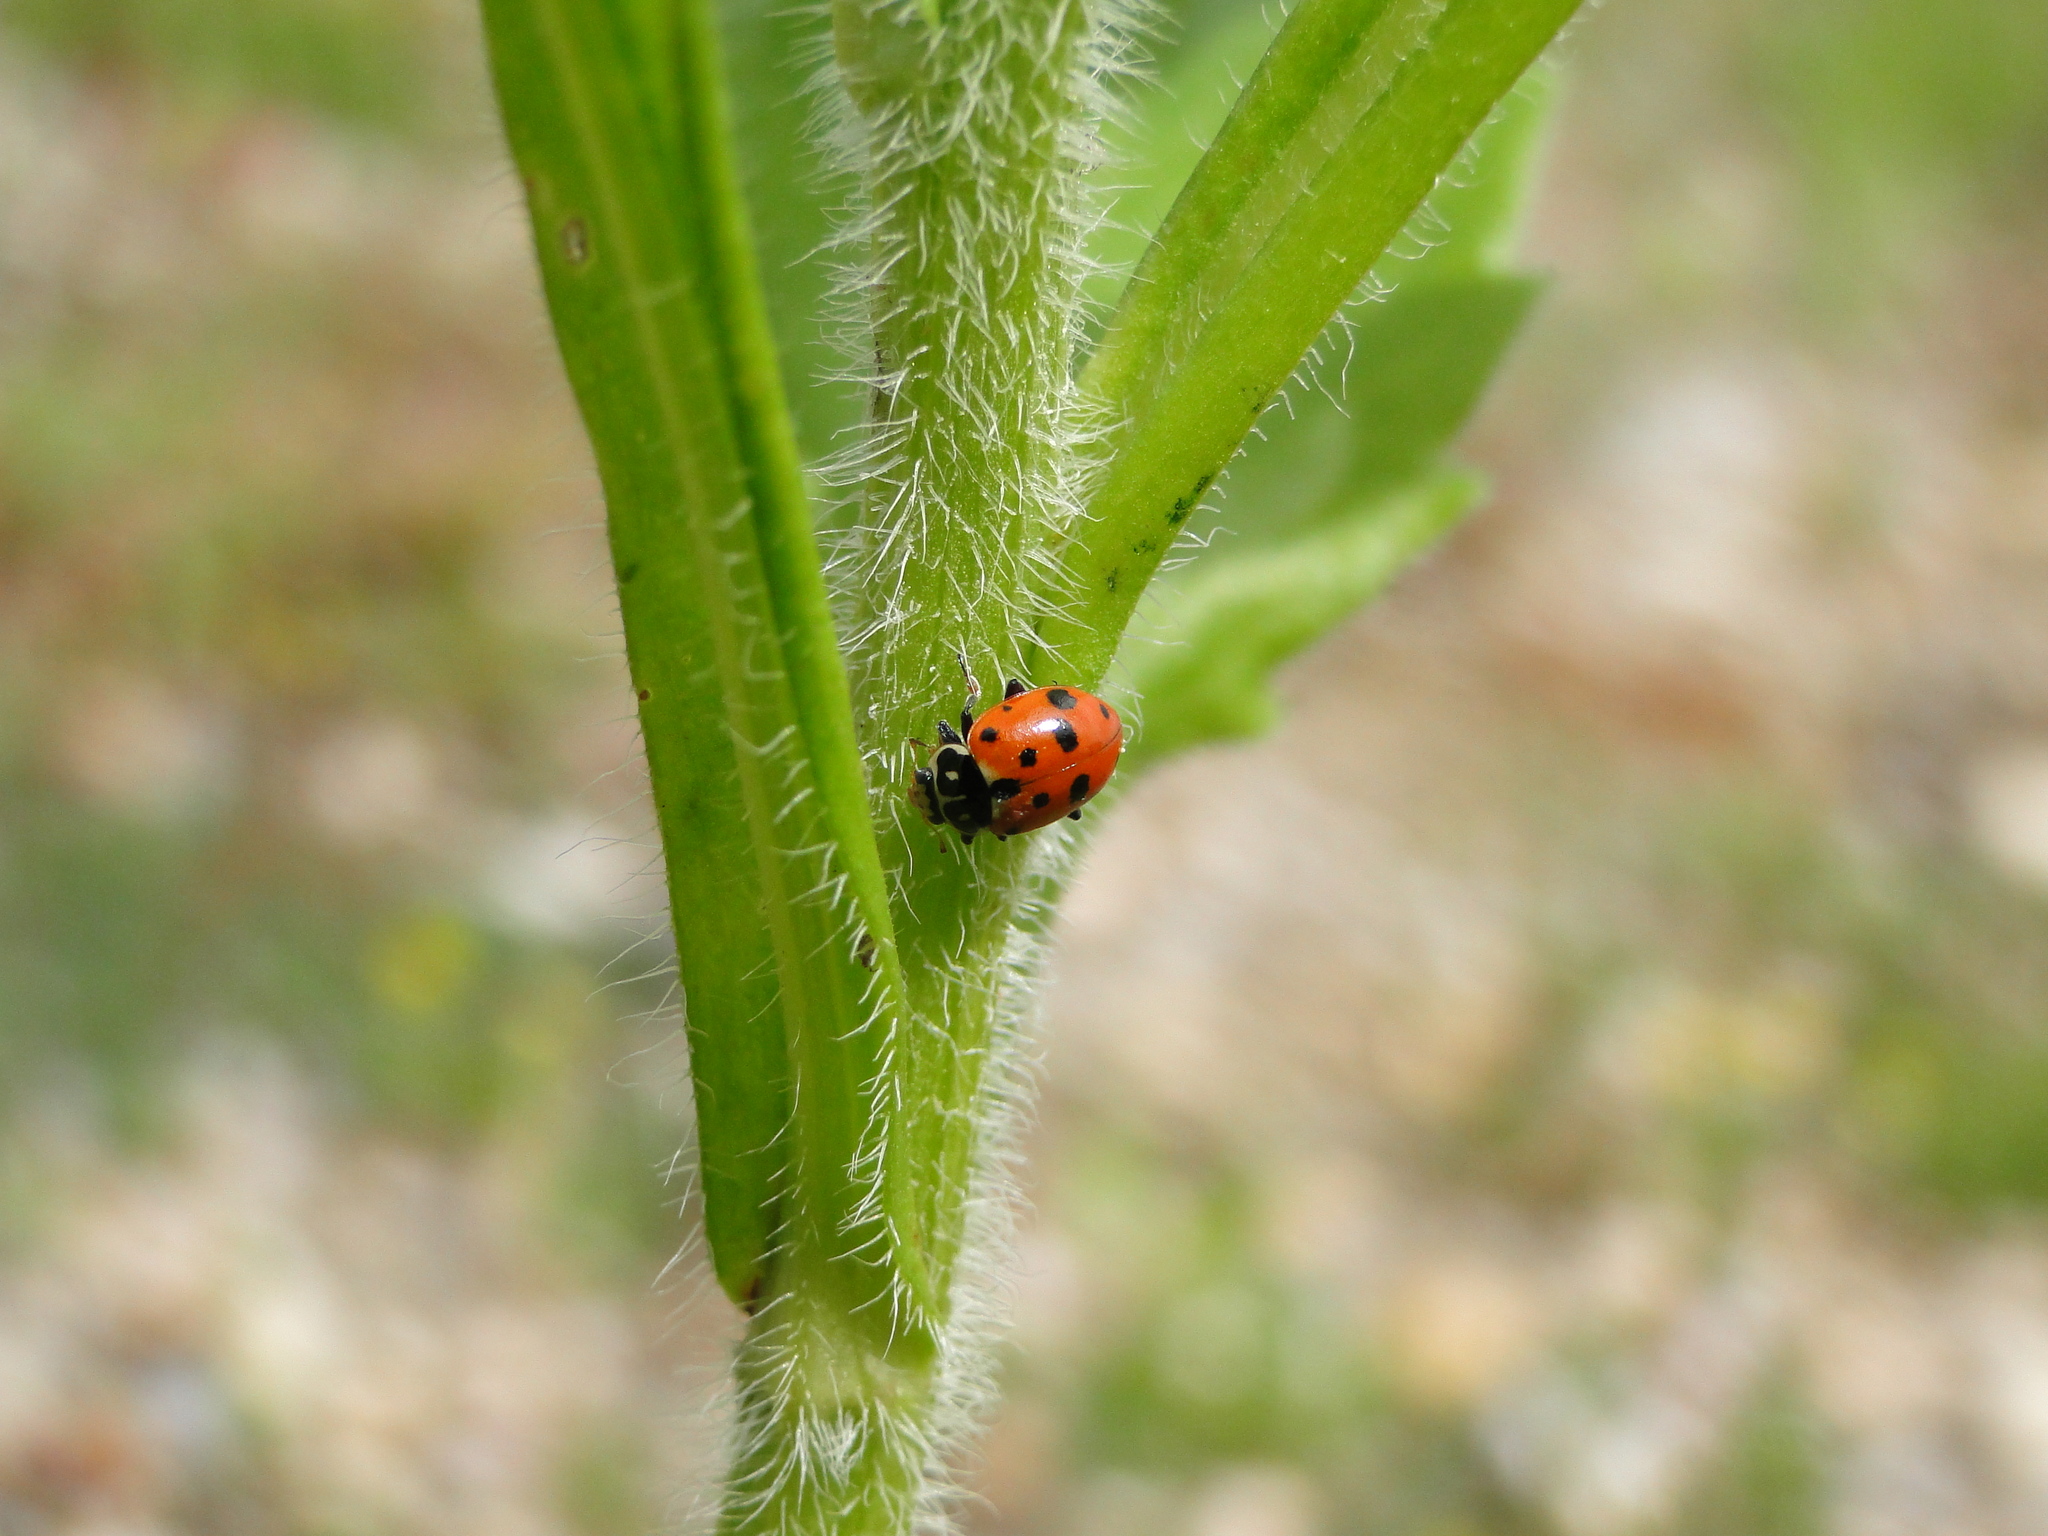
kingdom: Animalia
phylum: Arthropoda
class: Insecta
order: Coleoptera
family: Coccinellidae
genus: Hippodamia
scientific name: Hippodamia variegata
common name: Ladybird beetle
